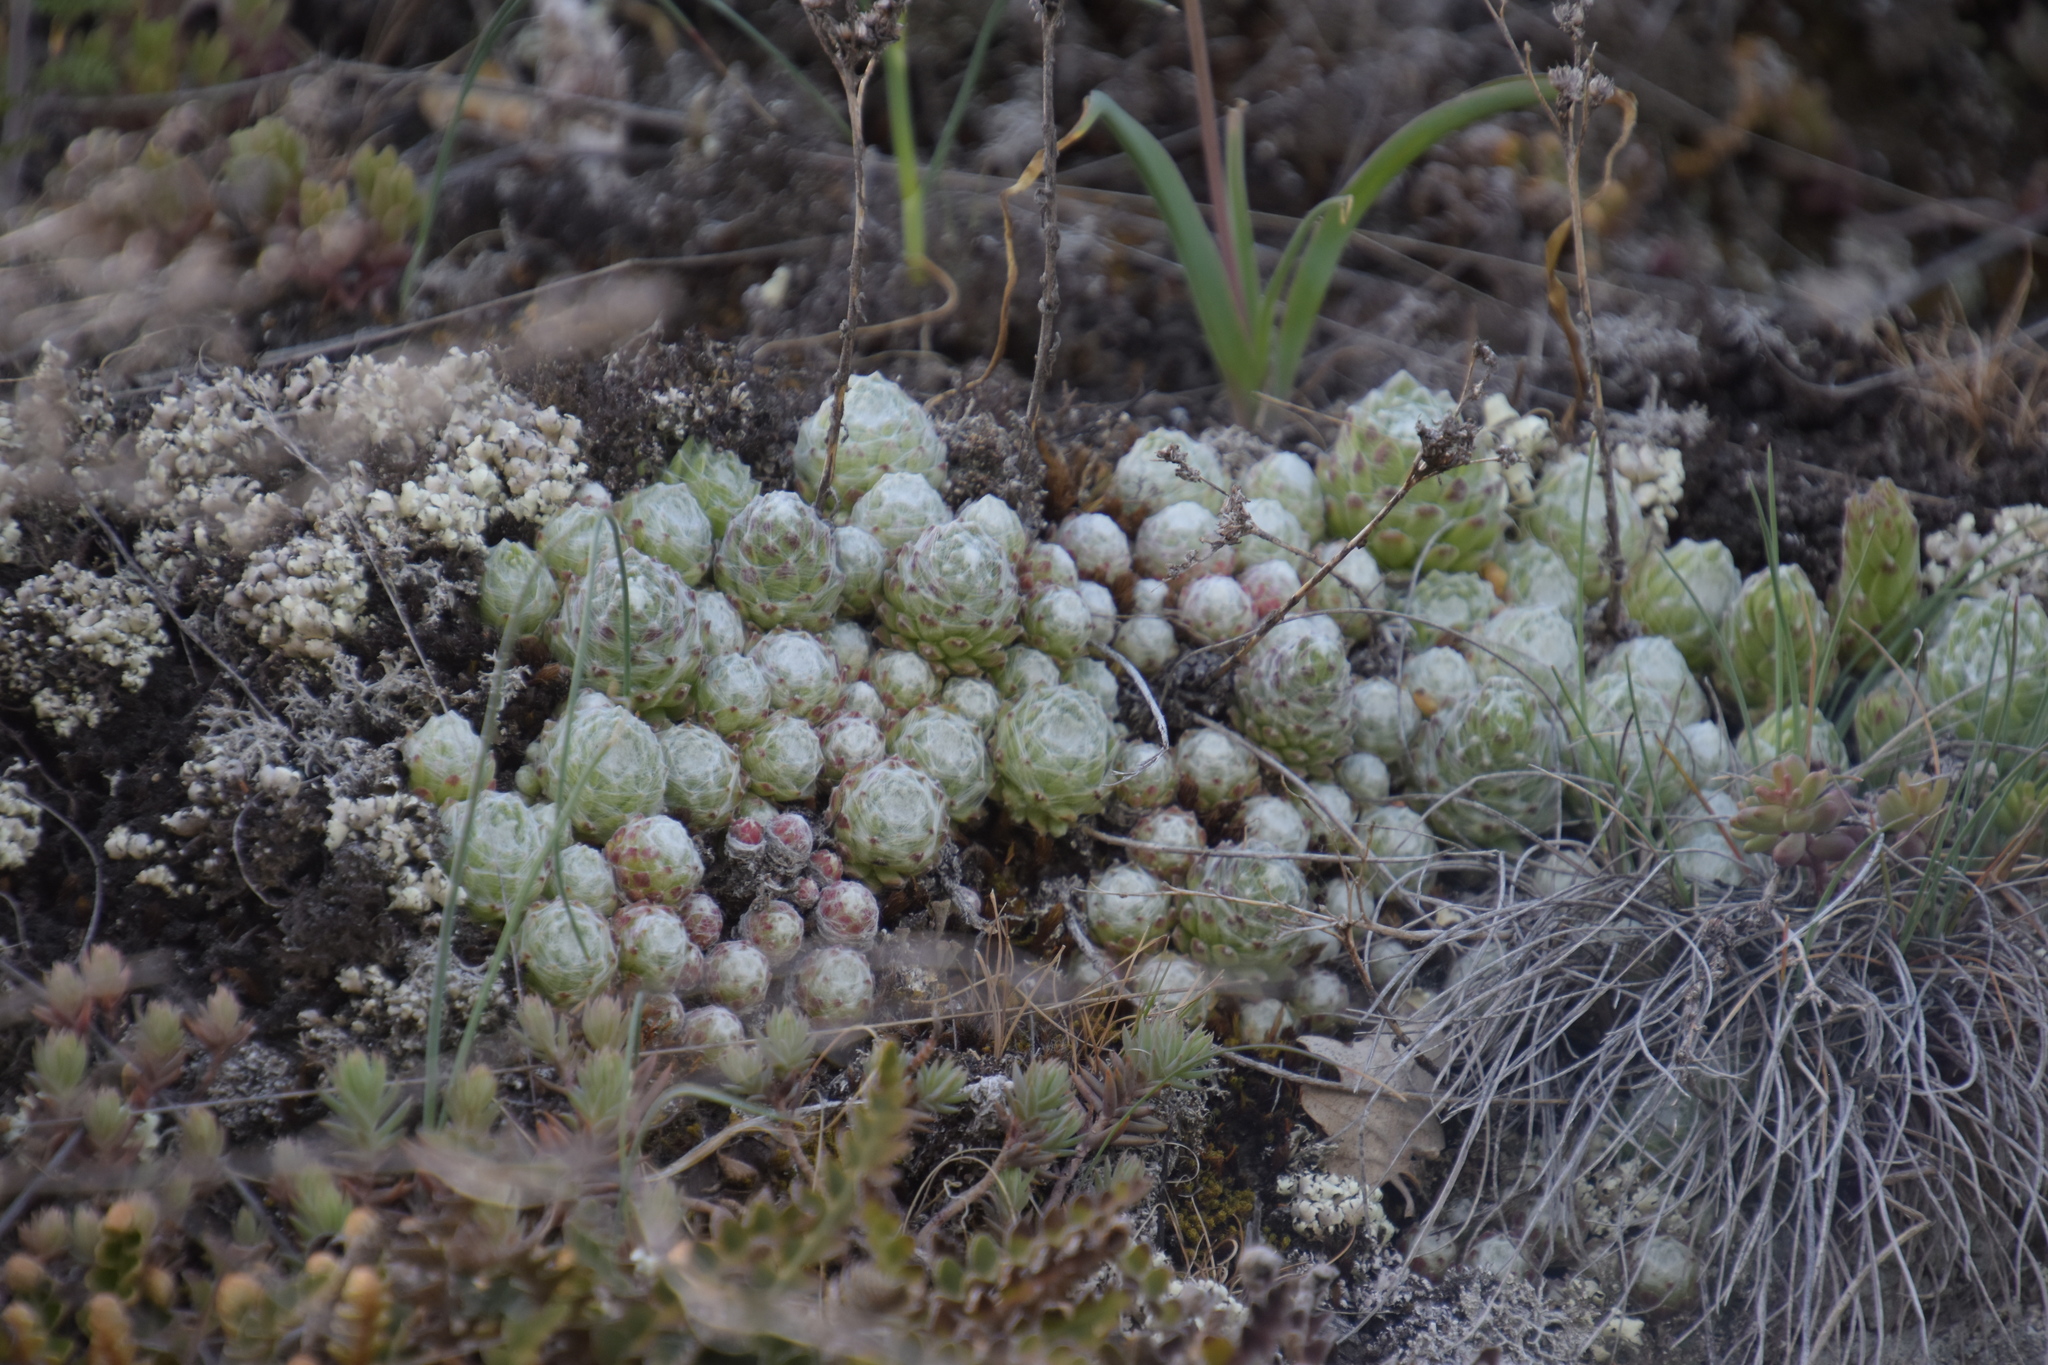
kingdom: Plantae
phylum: Tracheophyta
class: Magnoliopsida
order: Saxifragales
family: Crassulaceae
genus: Sempervivum
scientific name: Sempervivum arachnoideum
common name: Cobweb house-leek
